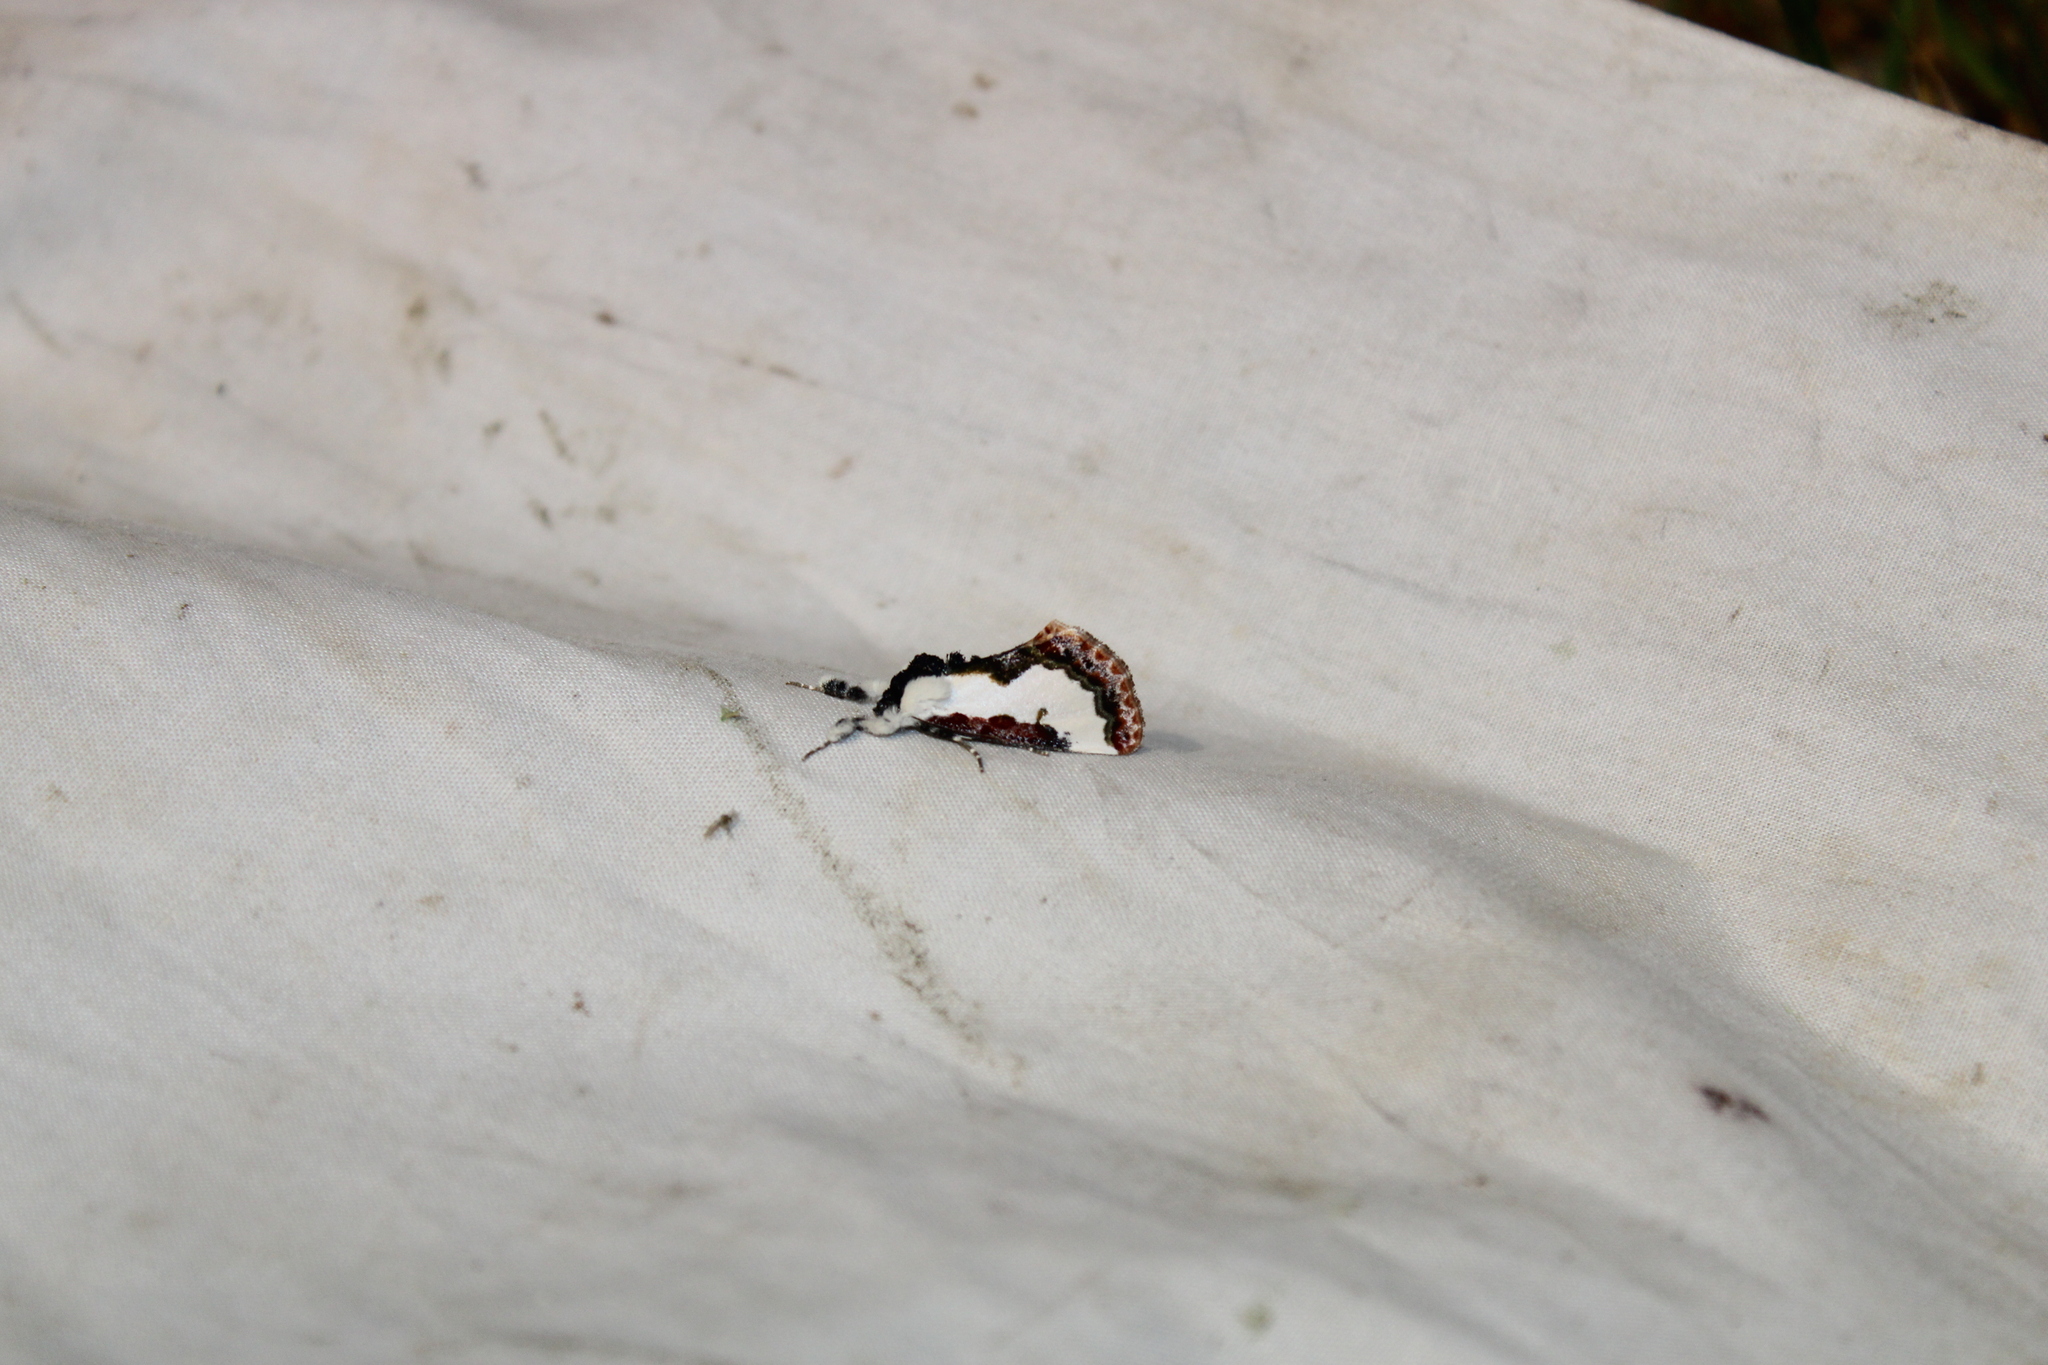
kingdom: Animalia
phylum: Arthropoda
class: Insecta
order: Lepidoptera
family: Noctuidae
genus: Eudryas
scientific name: Eudryas unio
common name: Pearly wood-nymph
